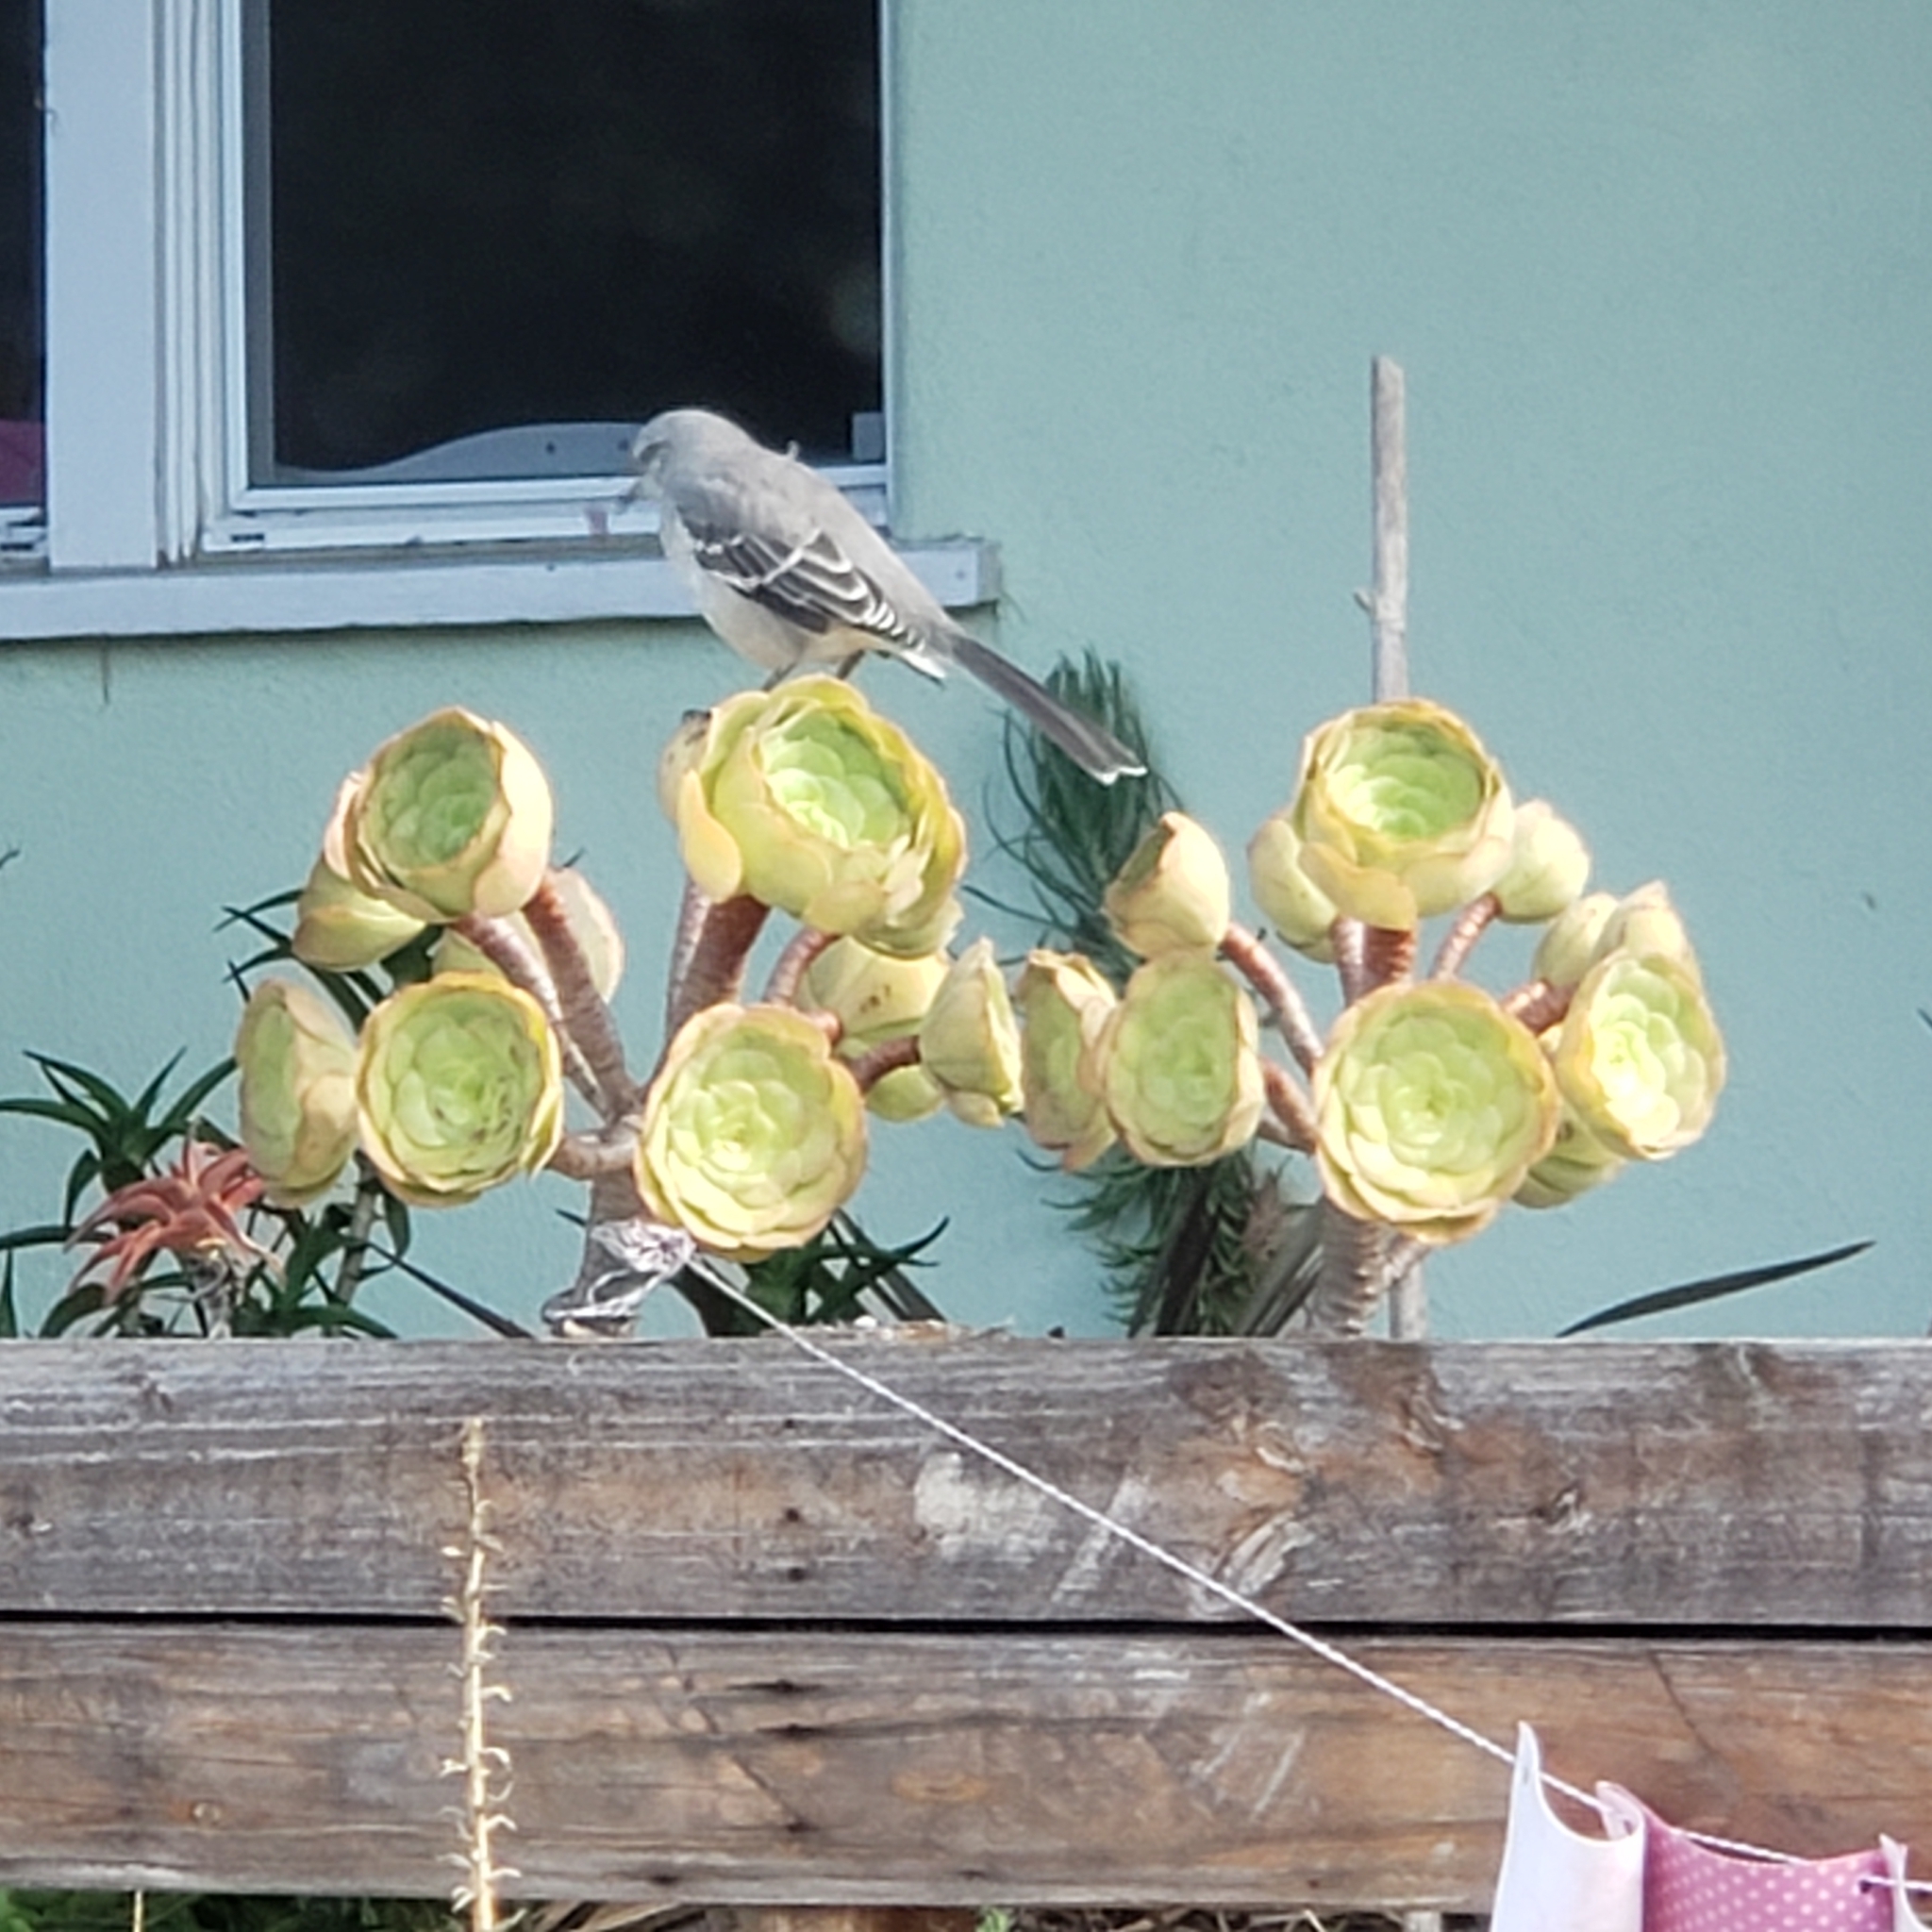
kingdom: Animalia
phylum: Chordata
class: Aves
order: Passeriformes
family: Mimidae
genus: Mimus
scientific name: Mimus polyglottos
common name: Northern mockingbird
